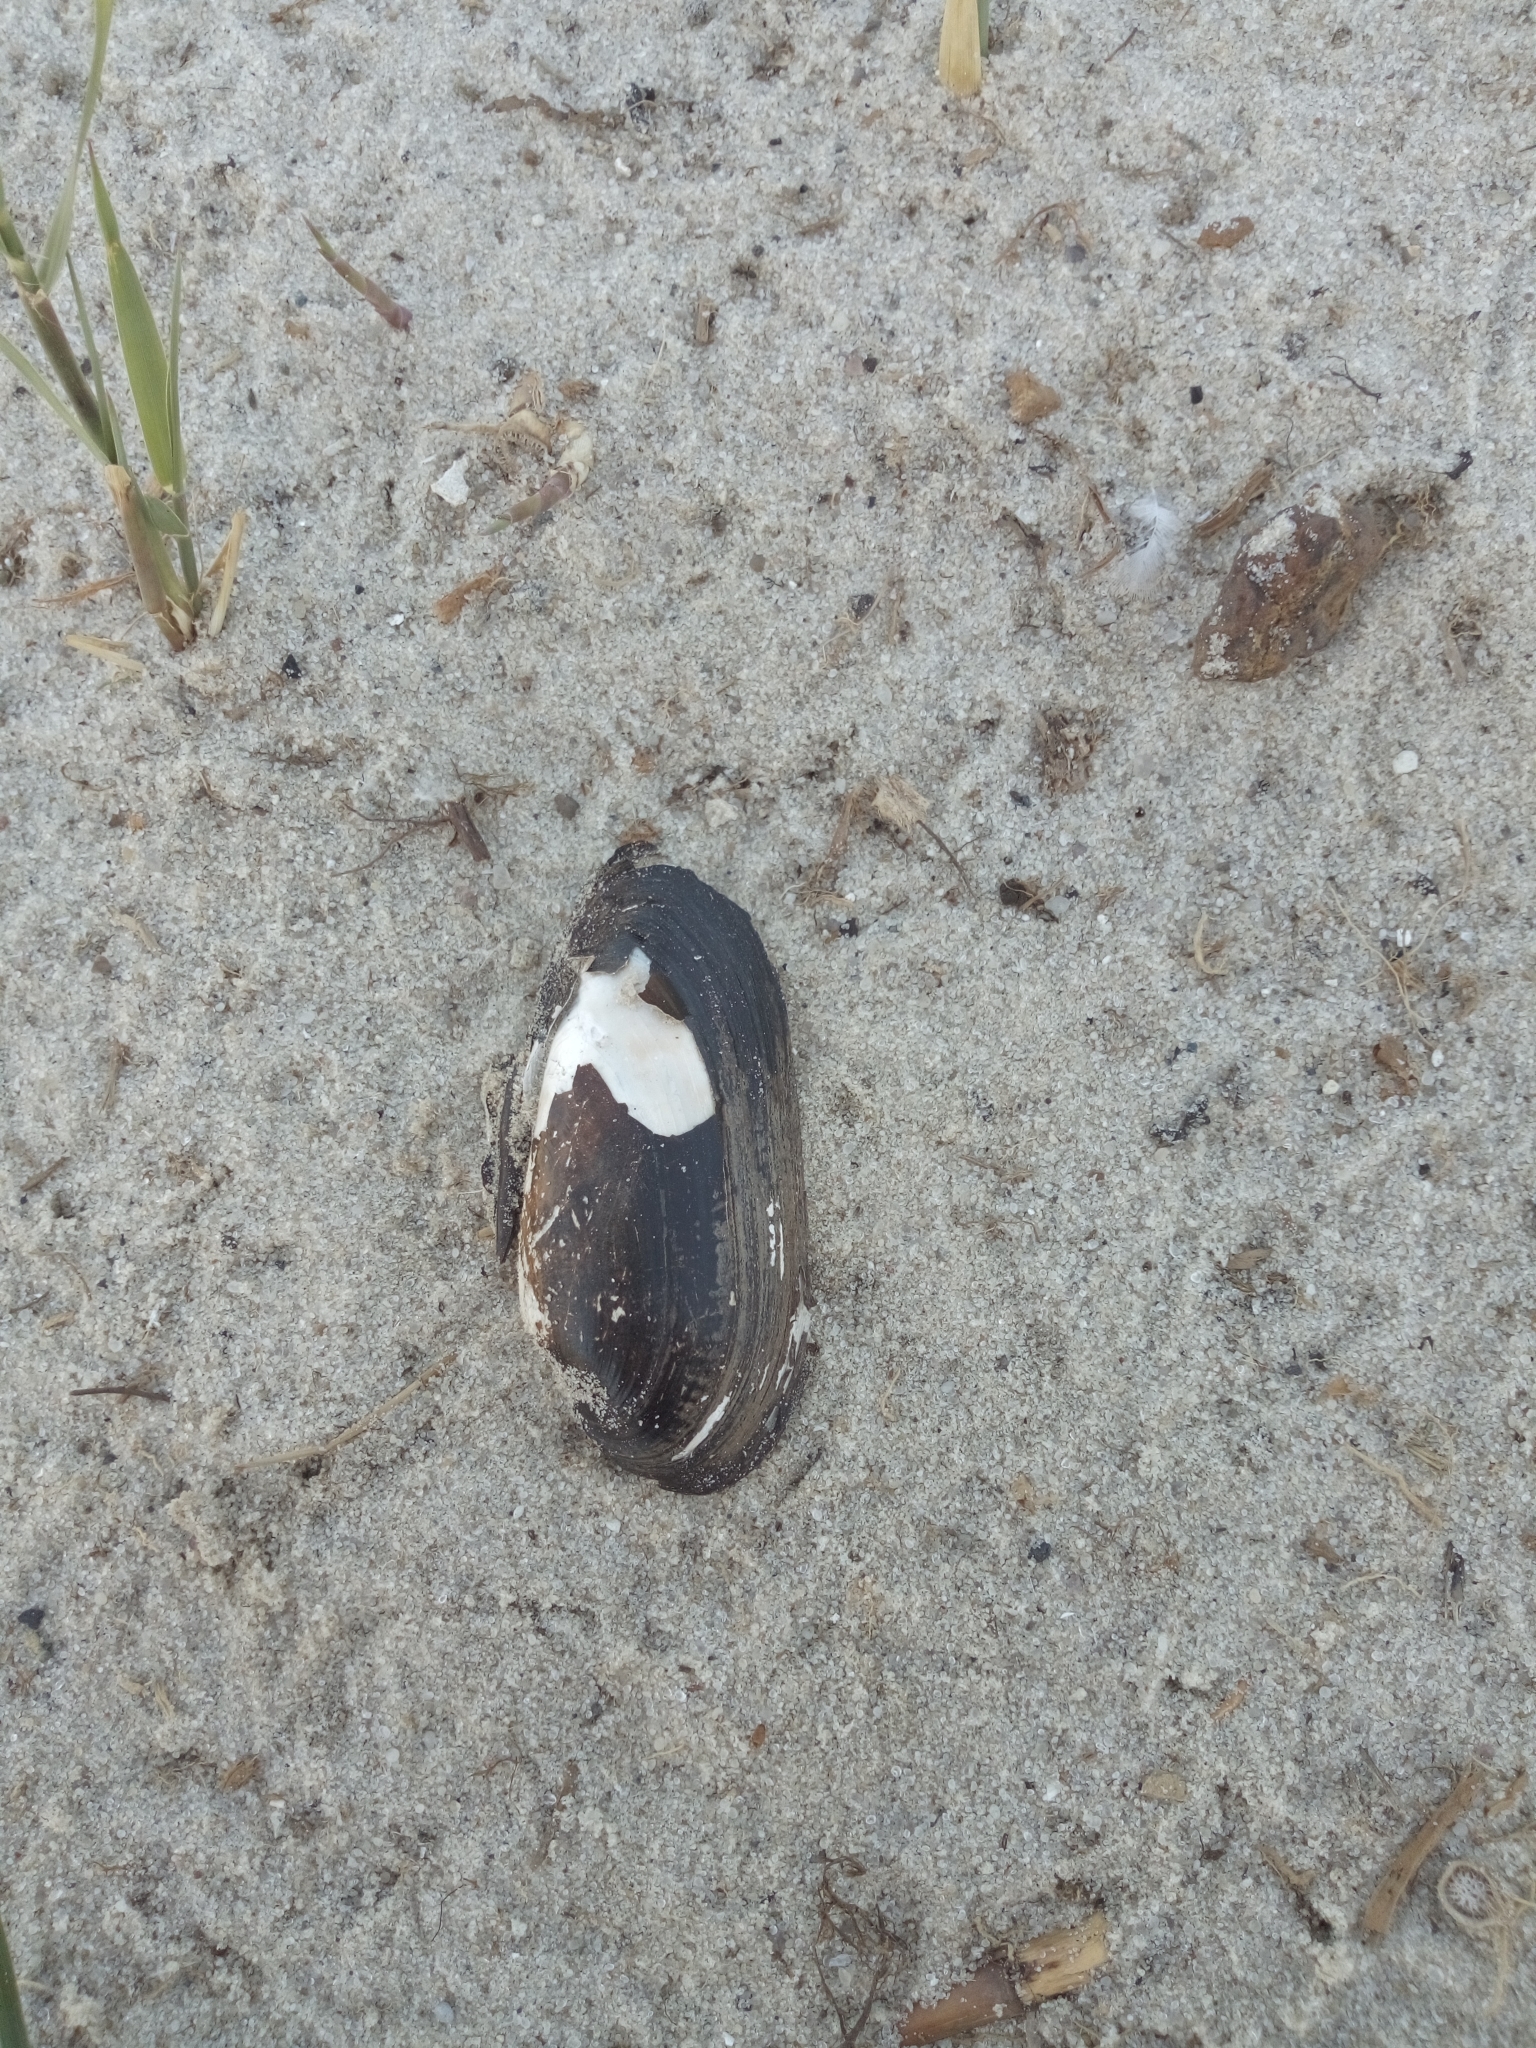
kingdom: Animalia
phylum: Mollusca
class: Bivalvia
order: Unionida
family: Unionidae
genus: Unio
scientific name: Unio pictorum
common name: Painter's mussel
